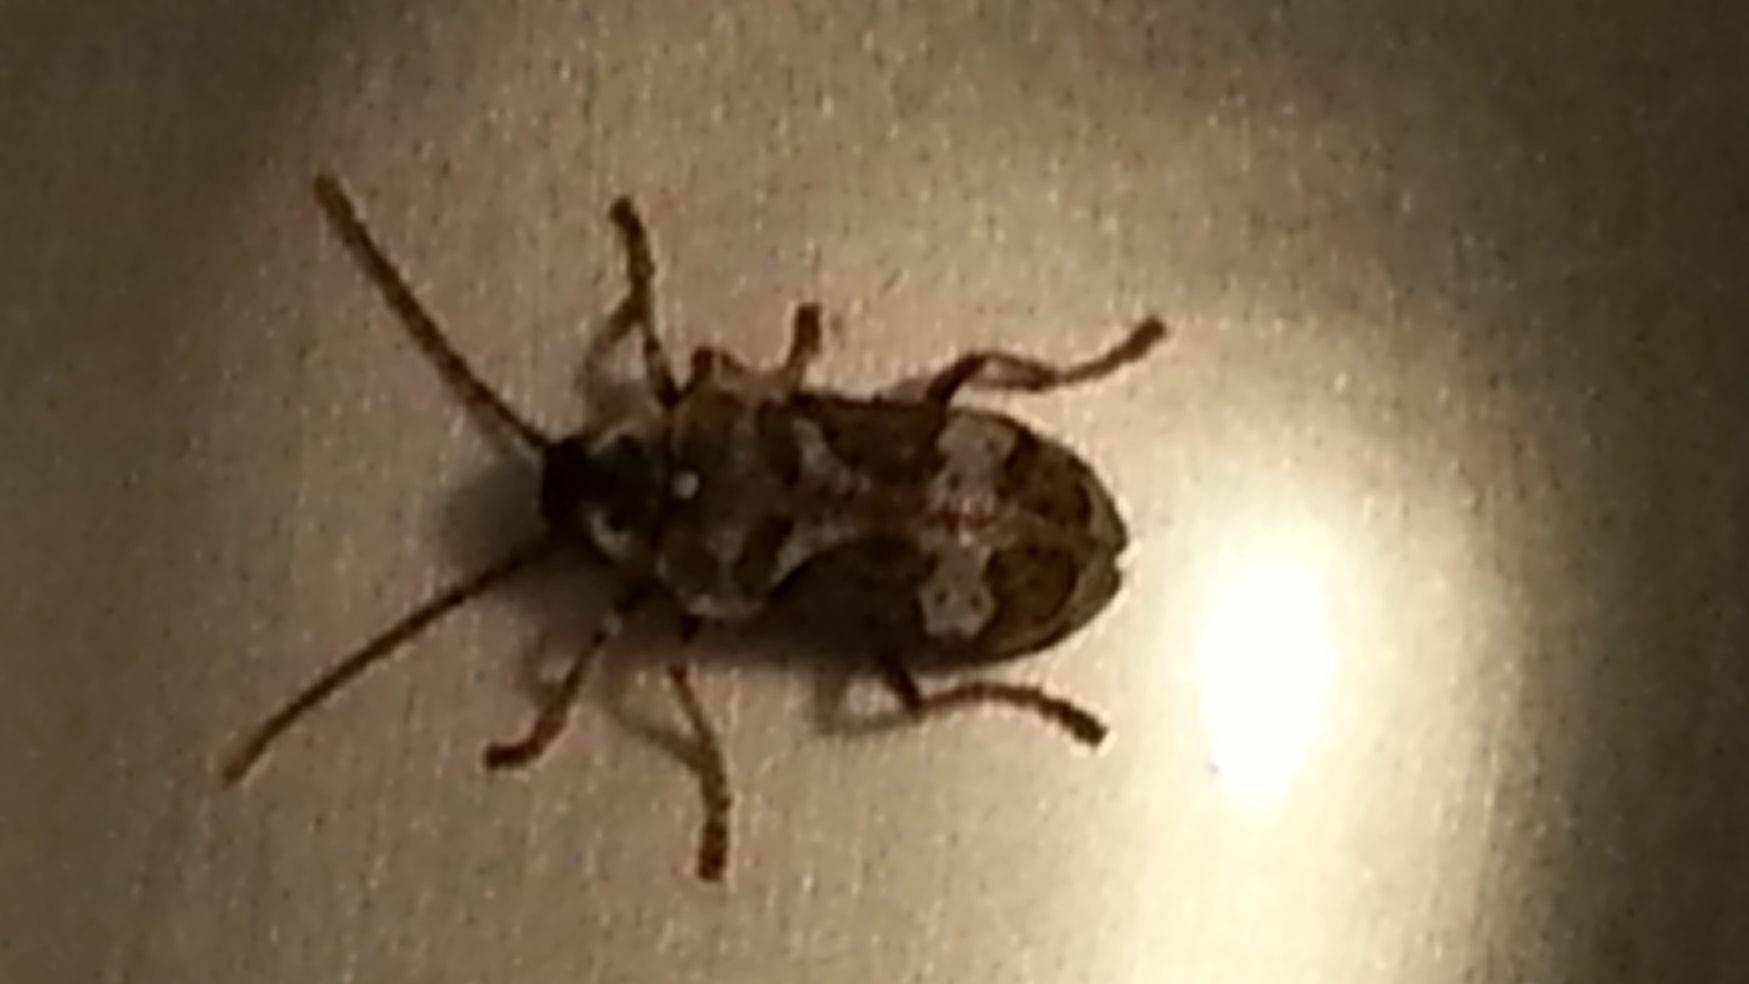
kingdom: Animalia
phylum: Arthropoda
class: Insecta
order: Coleoptera
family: Anobiidae
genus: Ptinomorphus
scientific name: Ptinomorphus imperialis
